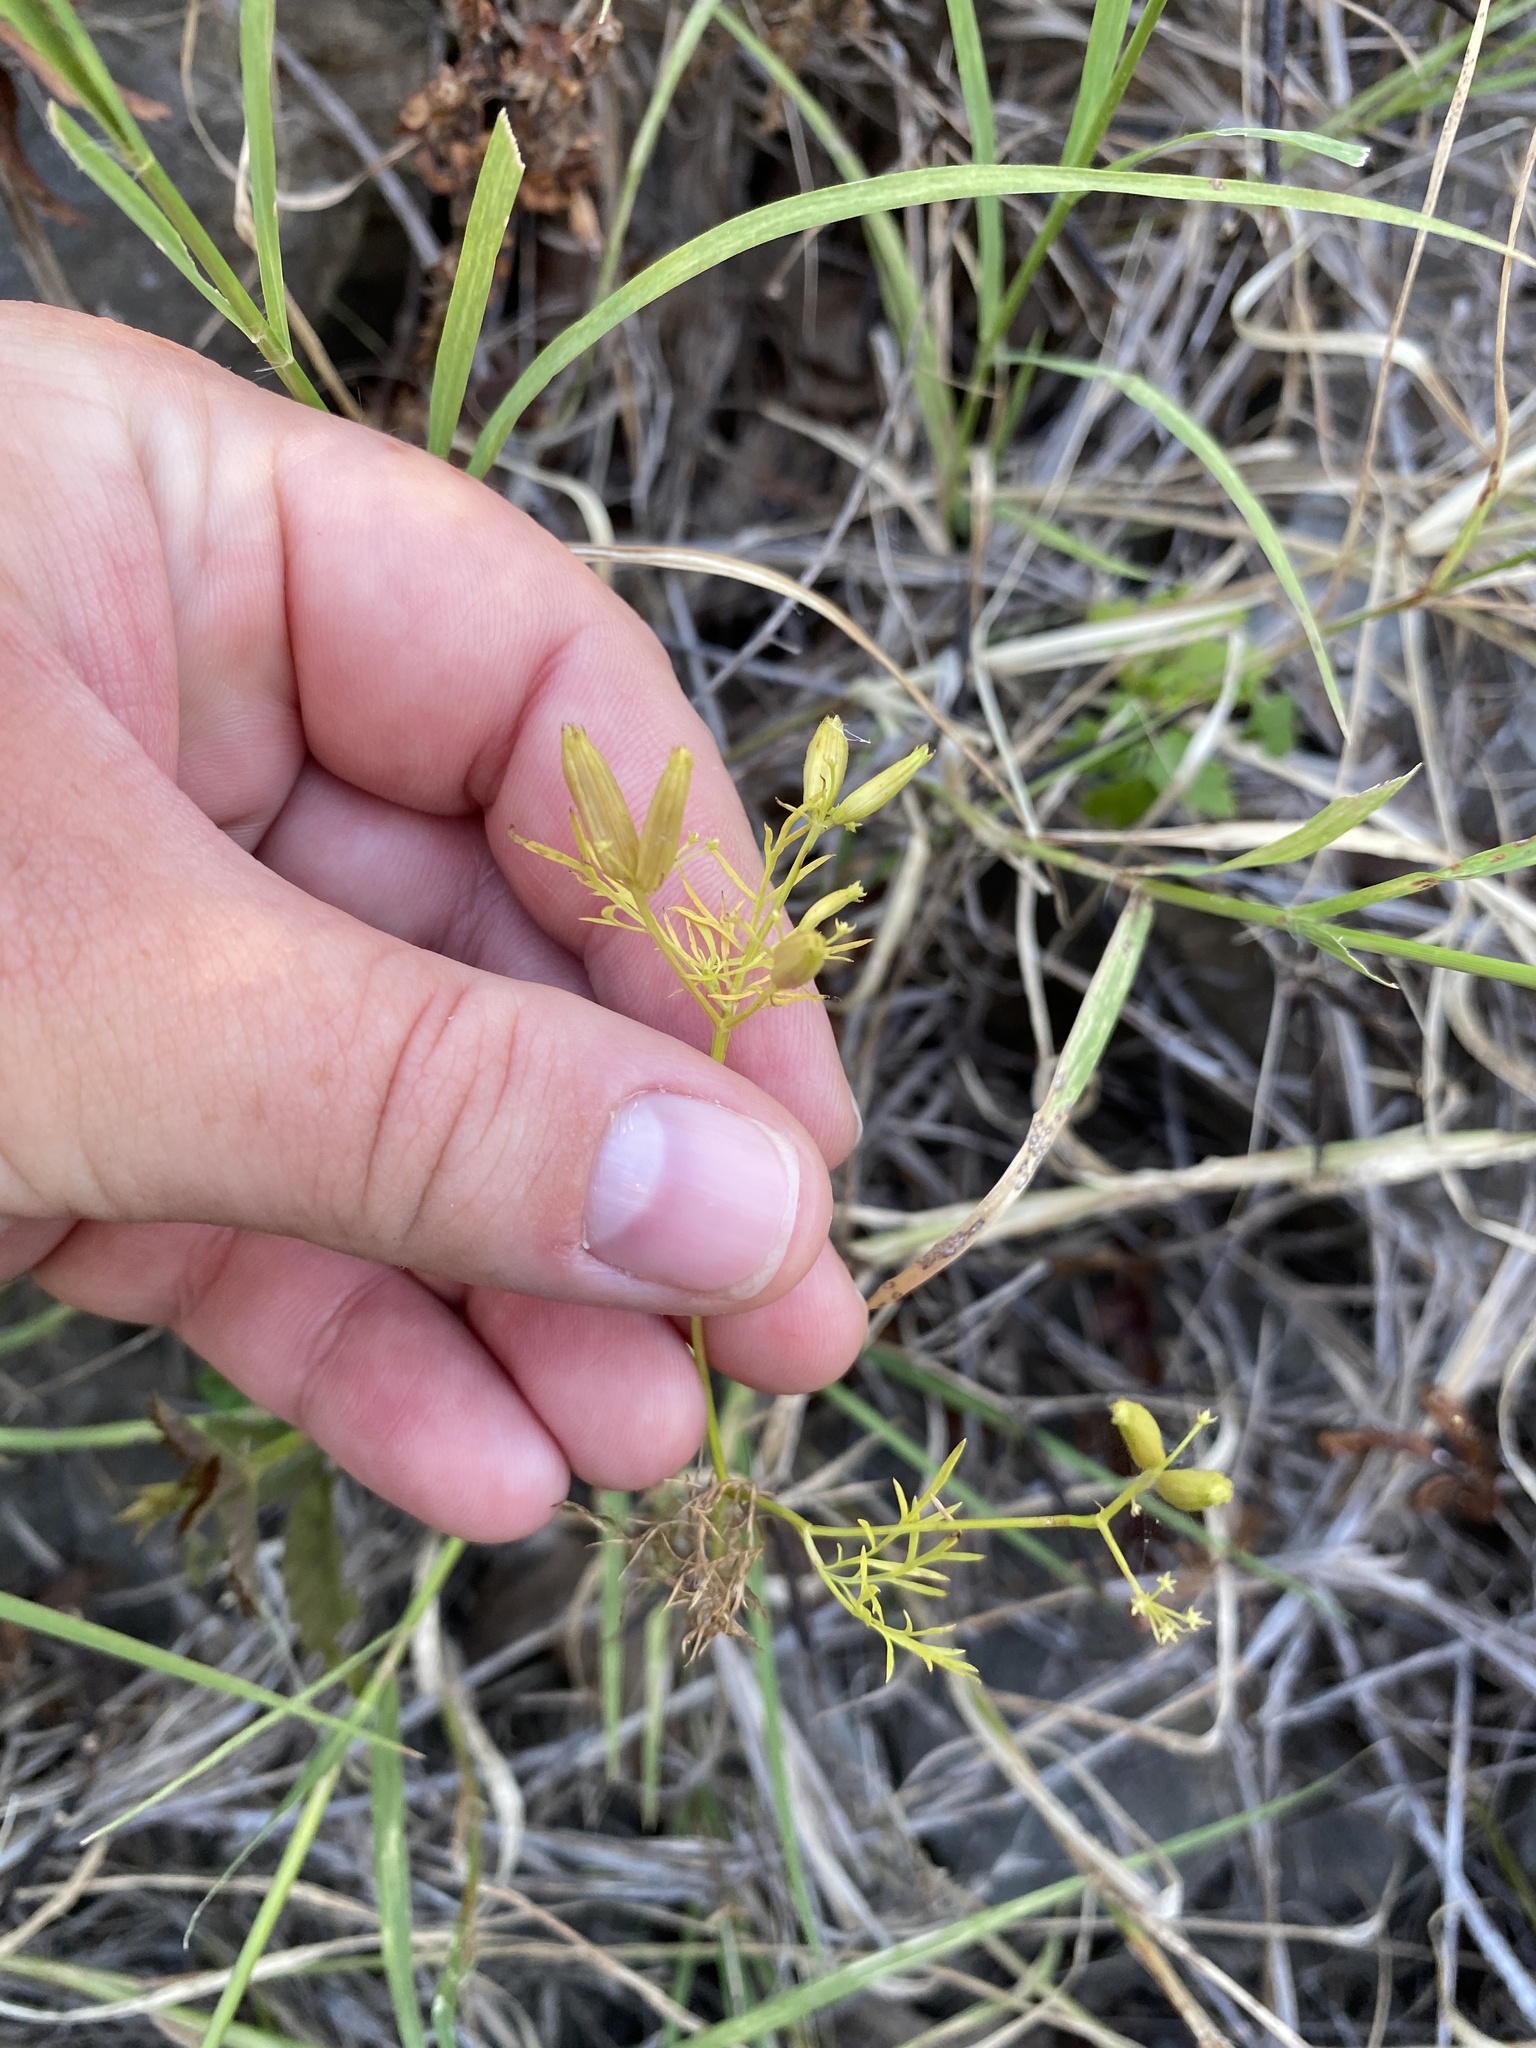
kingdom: Plantae
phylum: Tracheophyta
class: Magnoliopsida
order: Apiales
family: Apiaceae
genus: Trepocarpus
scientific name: Trepocarpus aethusae
